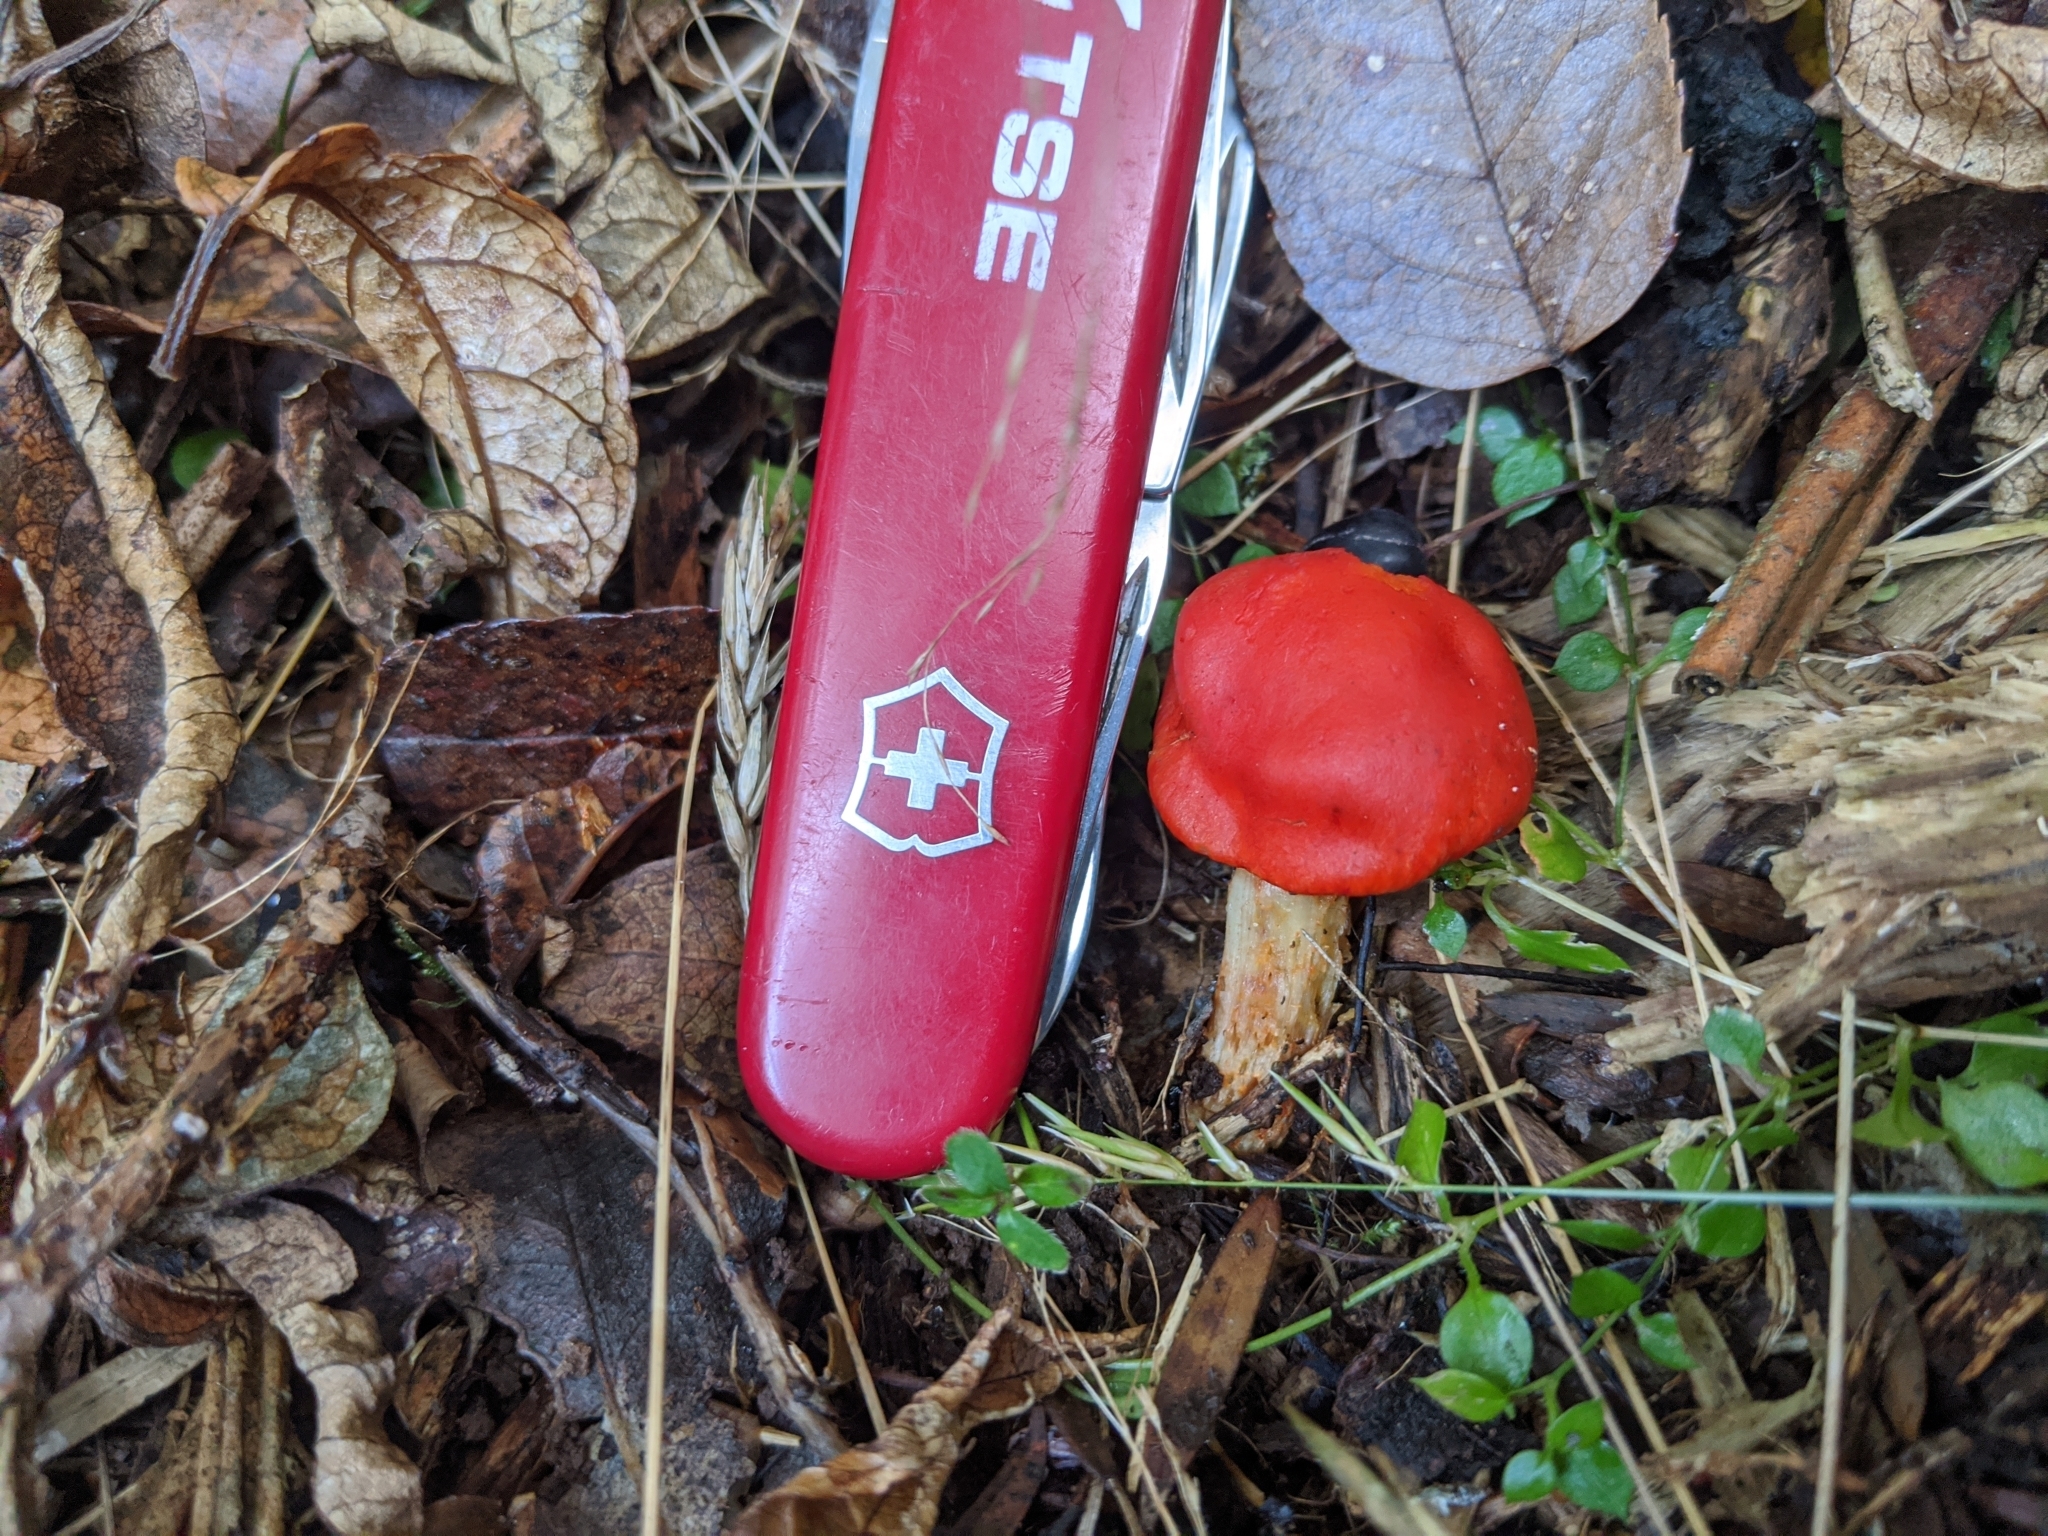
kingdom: Fungi
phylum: Basidiomycota
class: Agaricomycetes
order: Agaricales
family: Strophariaceae
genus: Leratiomyces
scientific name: Leratiomyces erythrocephalus
